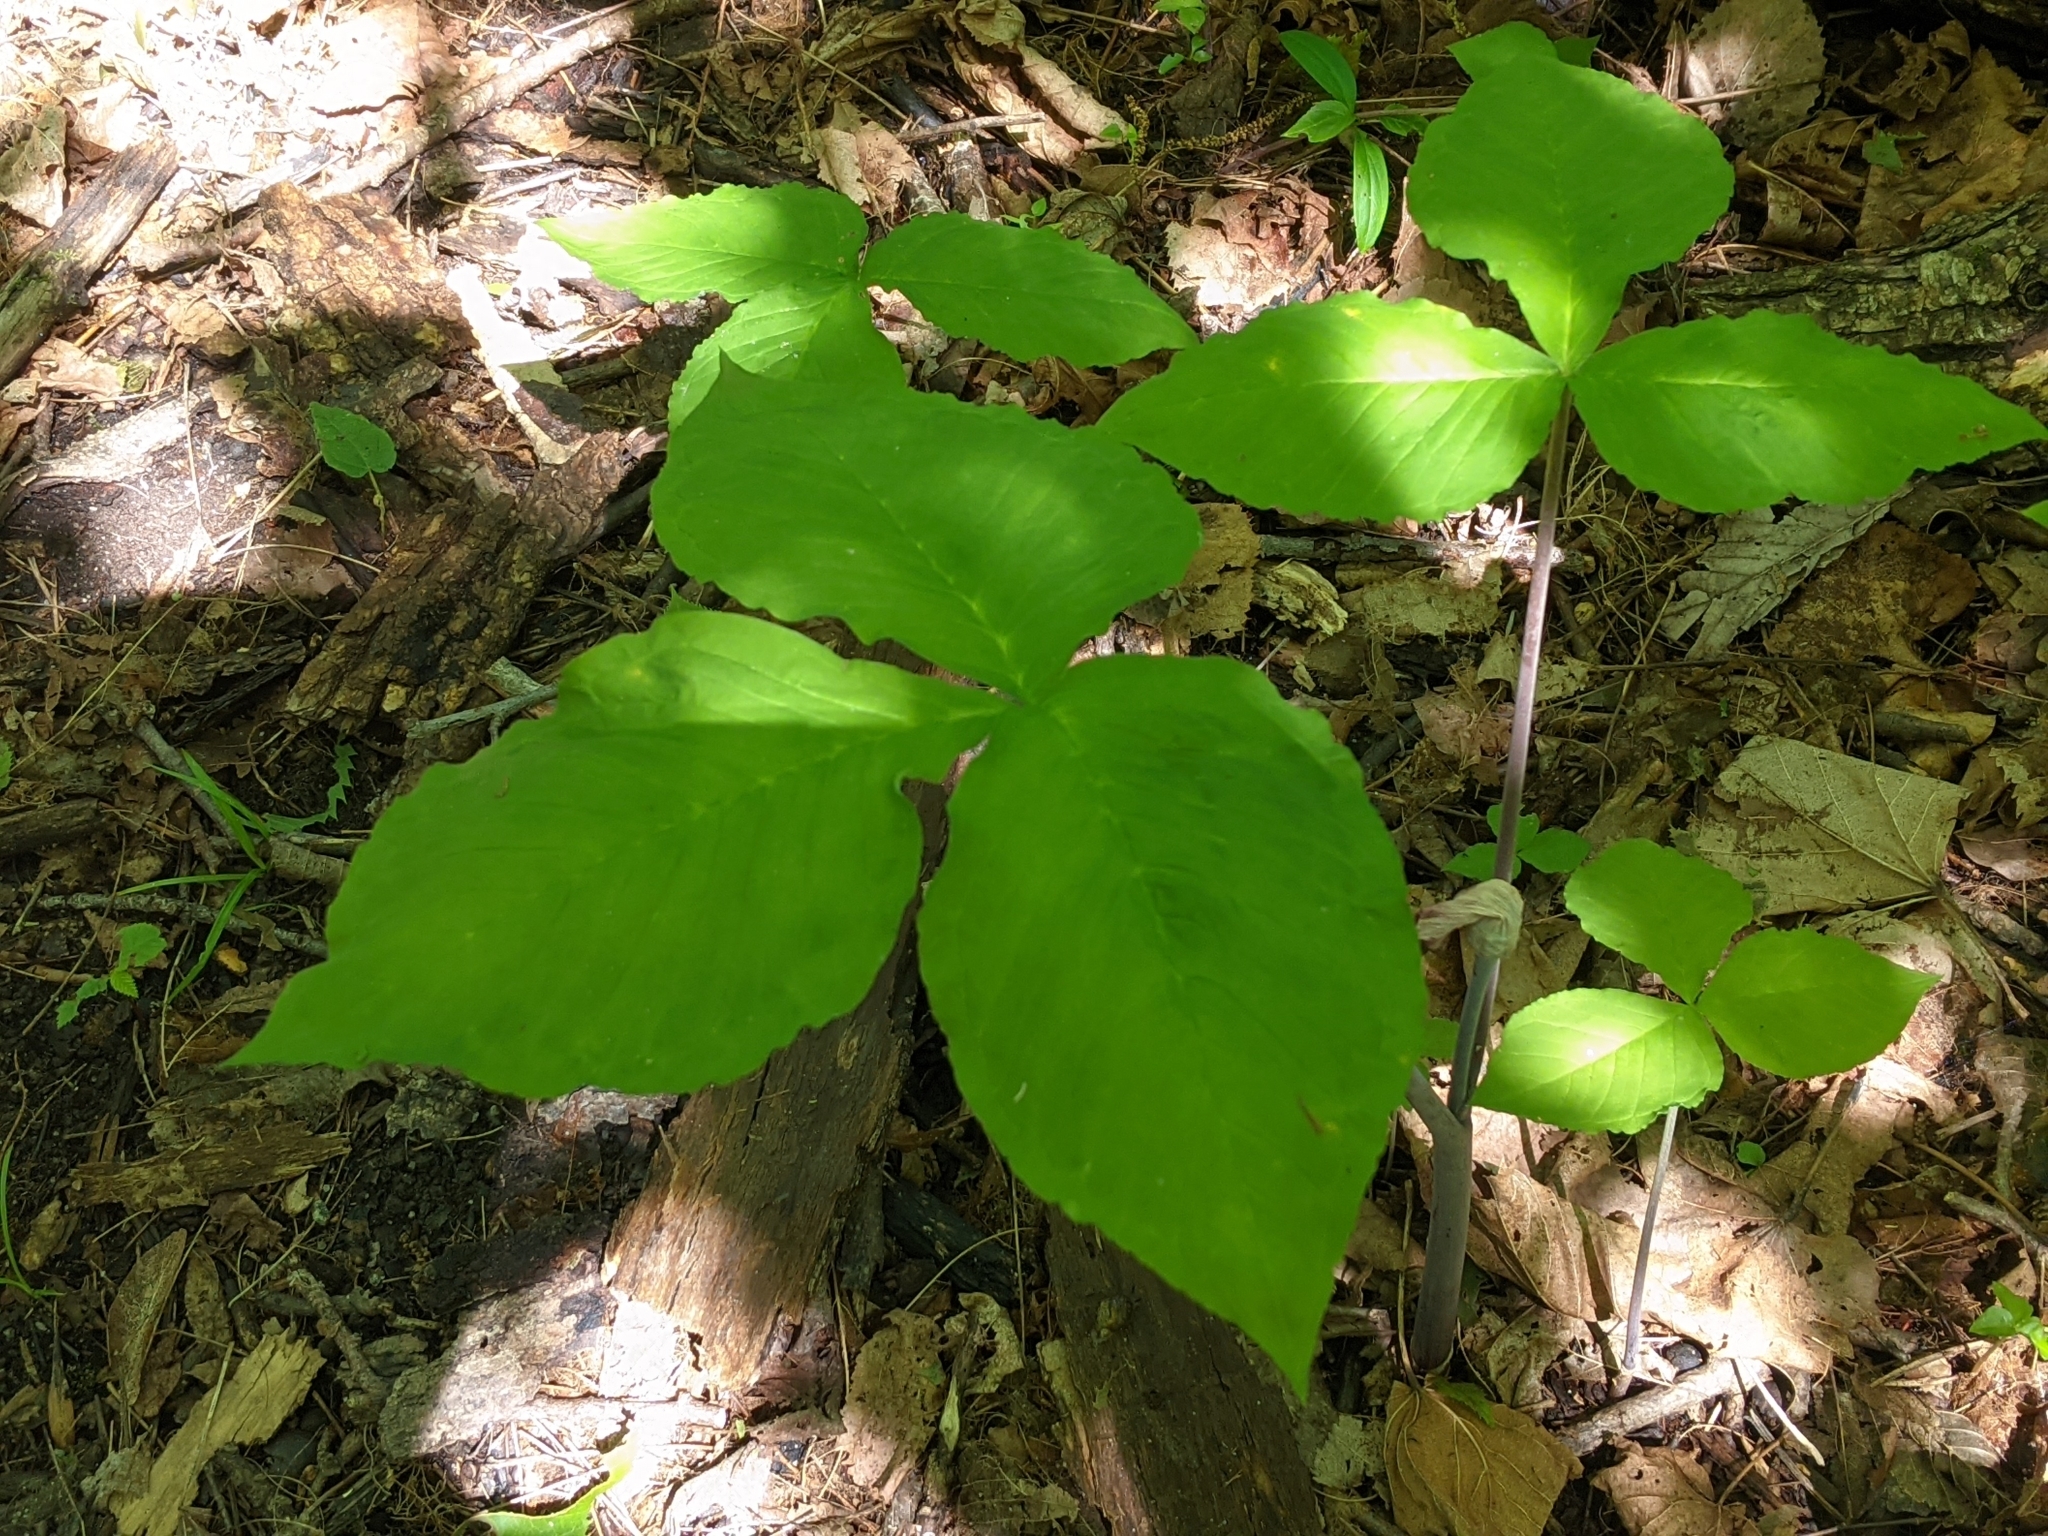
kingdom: Plantae
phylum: Tracheophyta
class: Liliopsida
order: Alismatales
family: Araceae
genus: Arisaema
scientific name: Arisaema triphyllum
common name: Jack-in-the-pulpit
